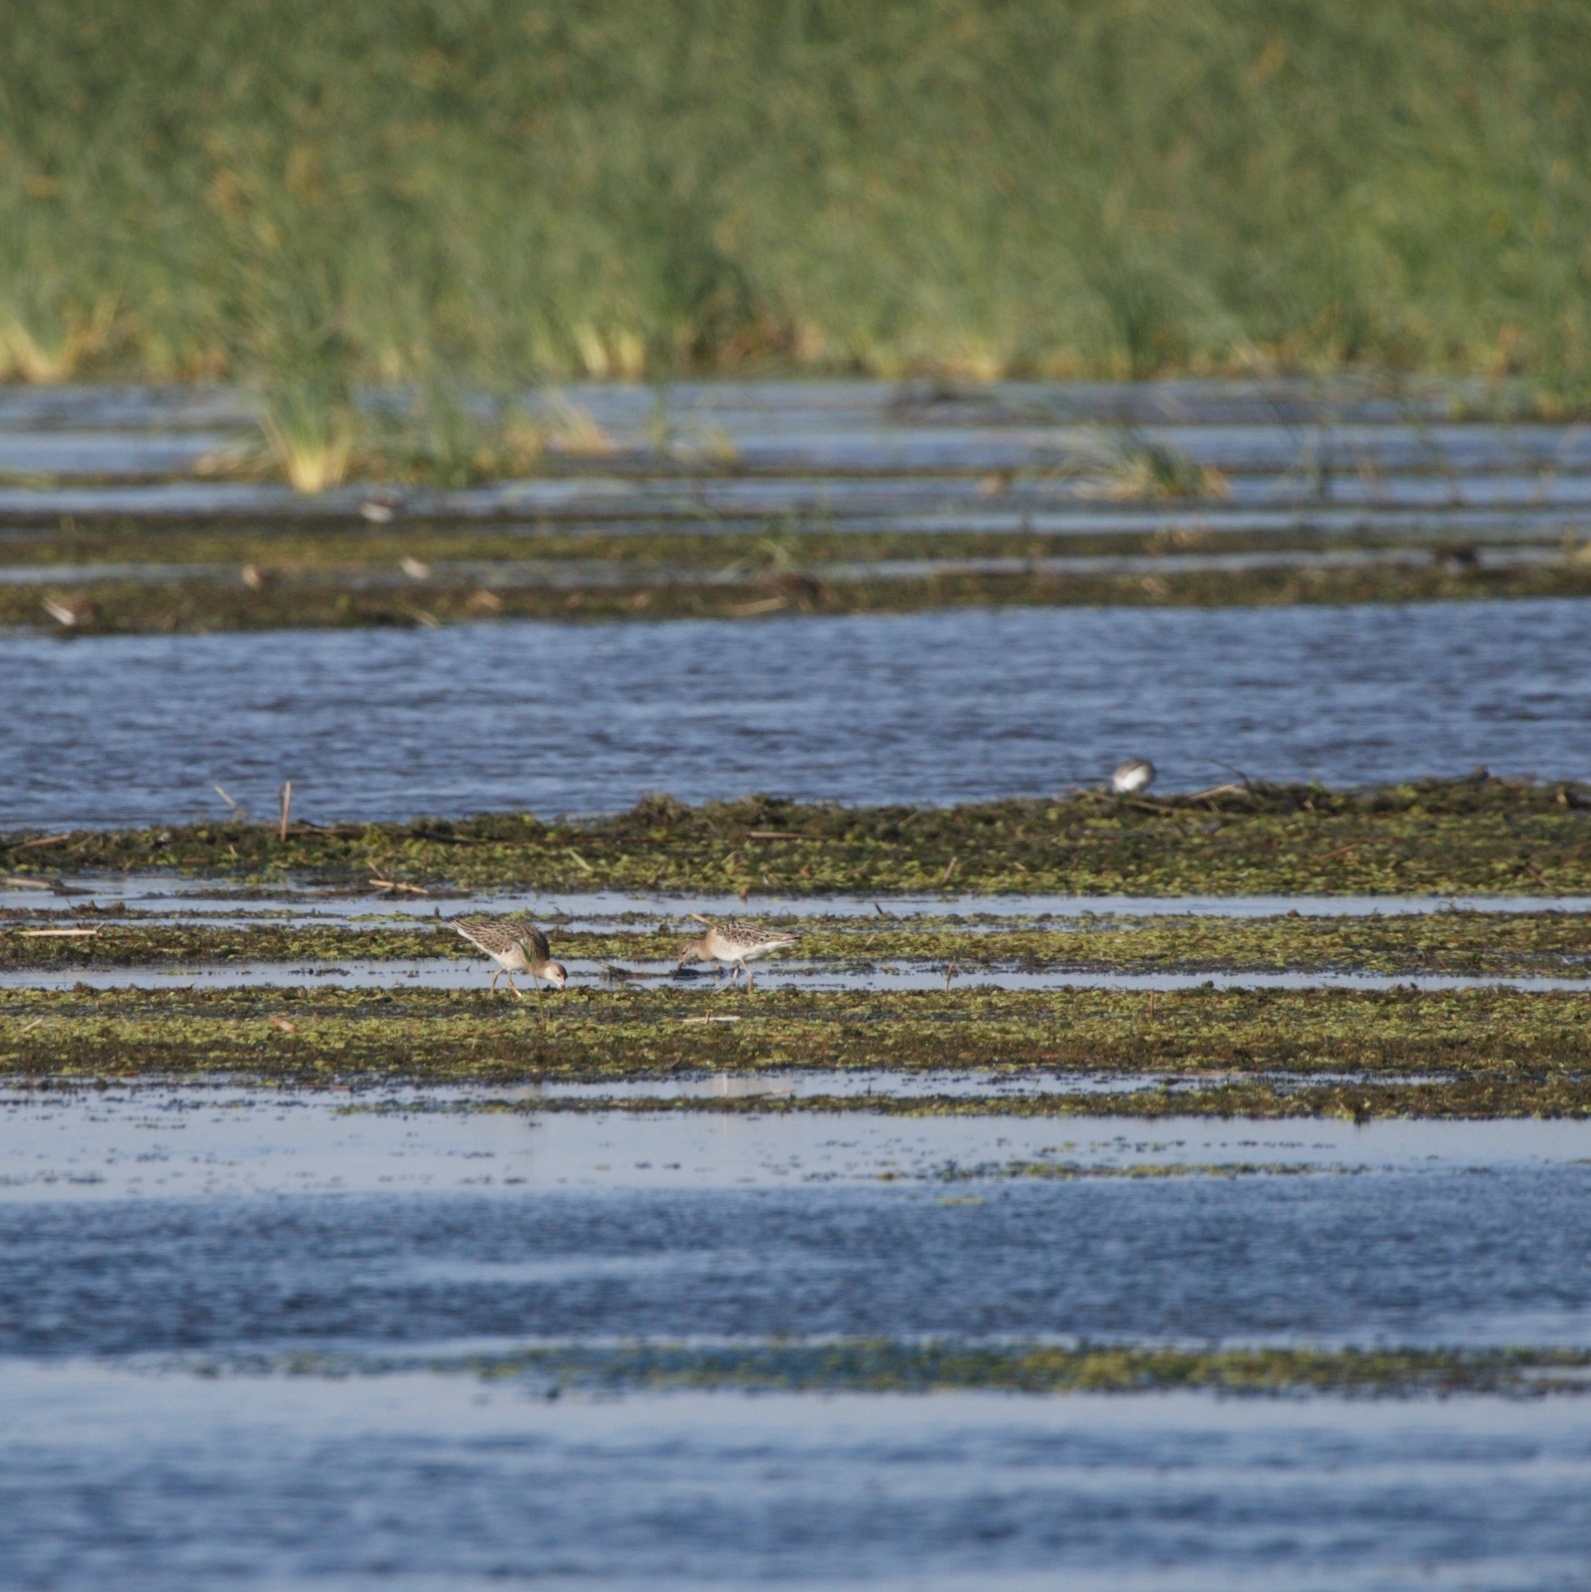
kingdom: Animalia
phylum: Chordata
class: Aves
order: Charadriiformes
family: Scolopacidae
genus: Calidris
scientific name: Calidris pugnax
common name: Ruff
